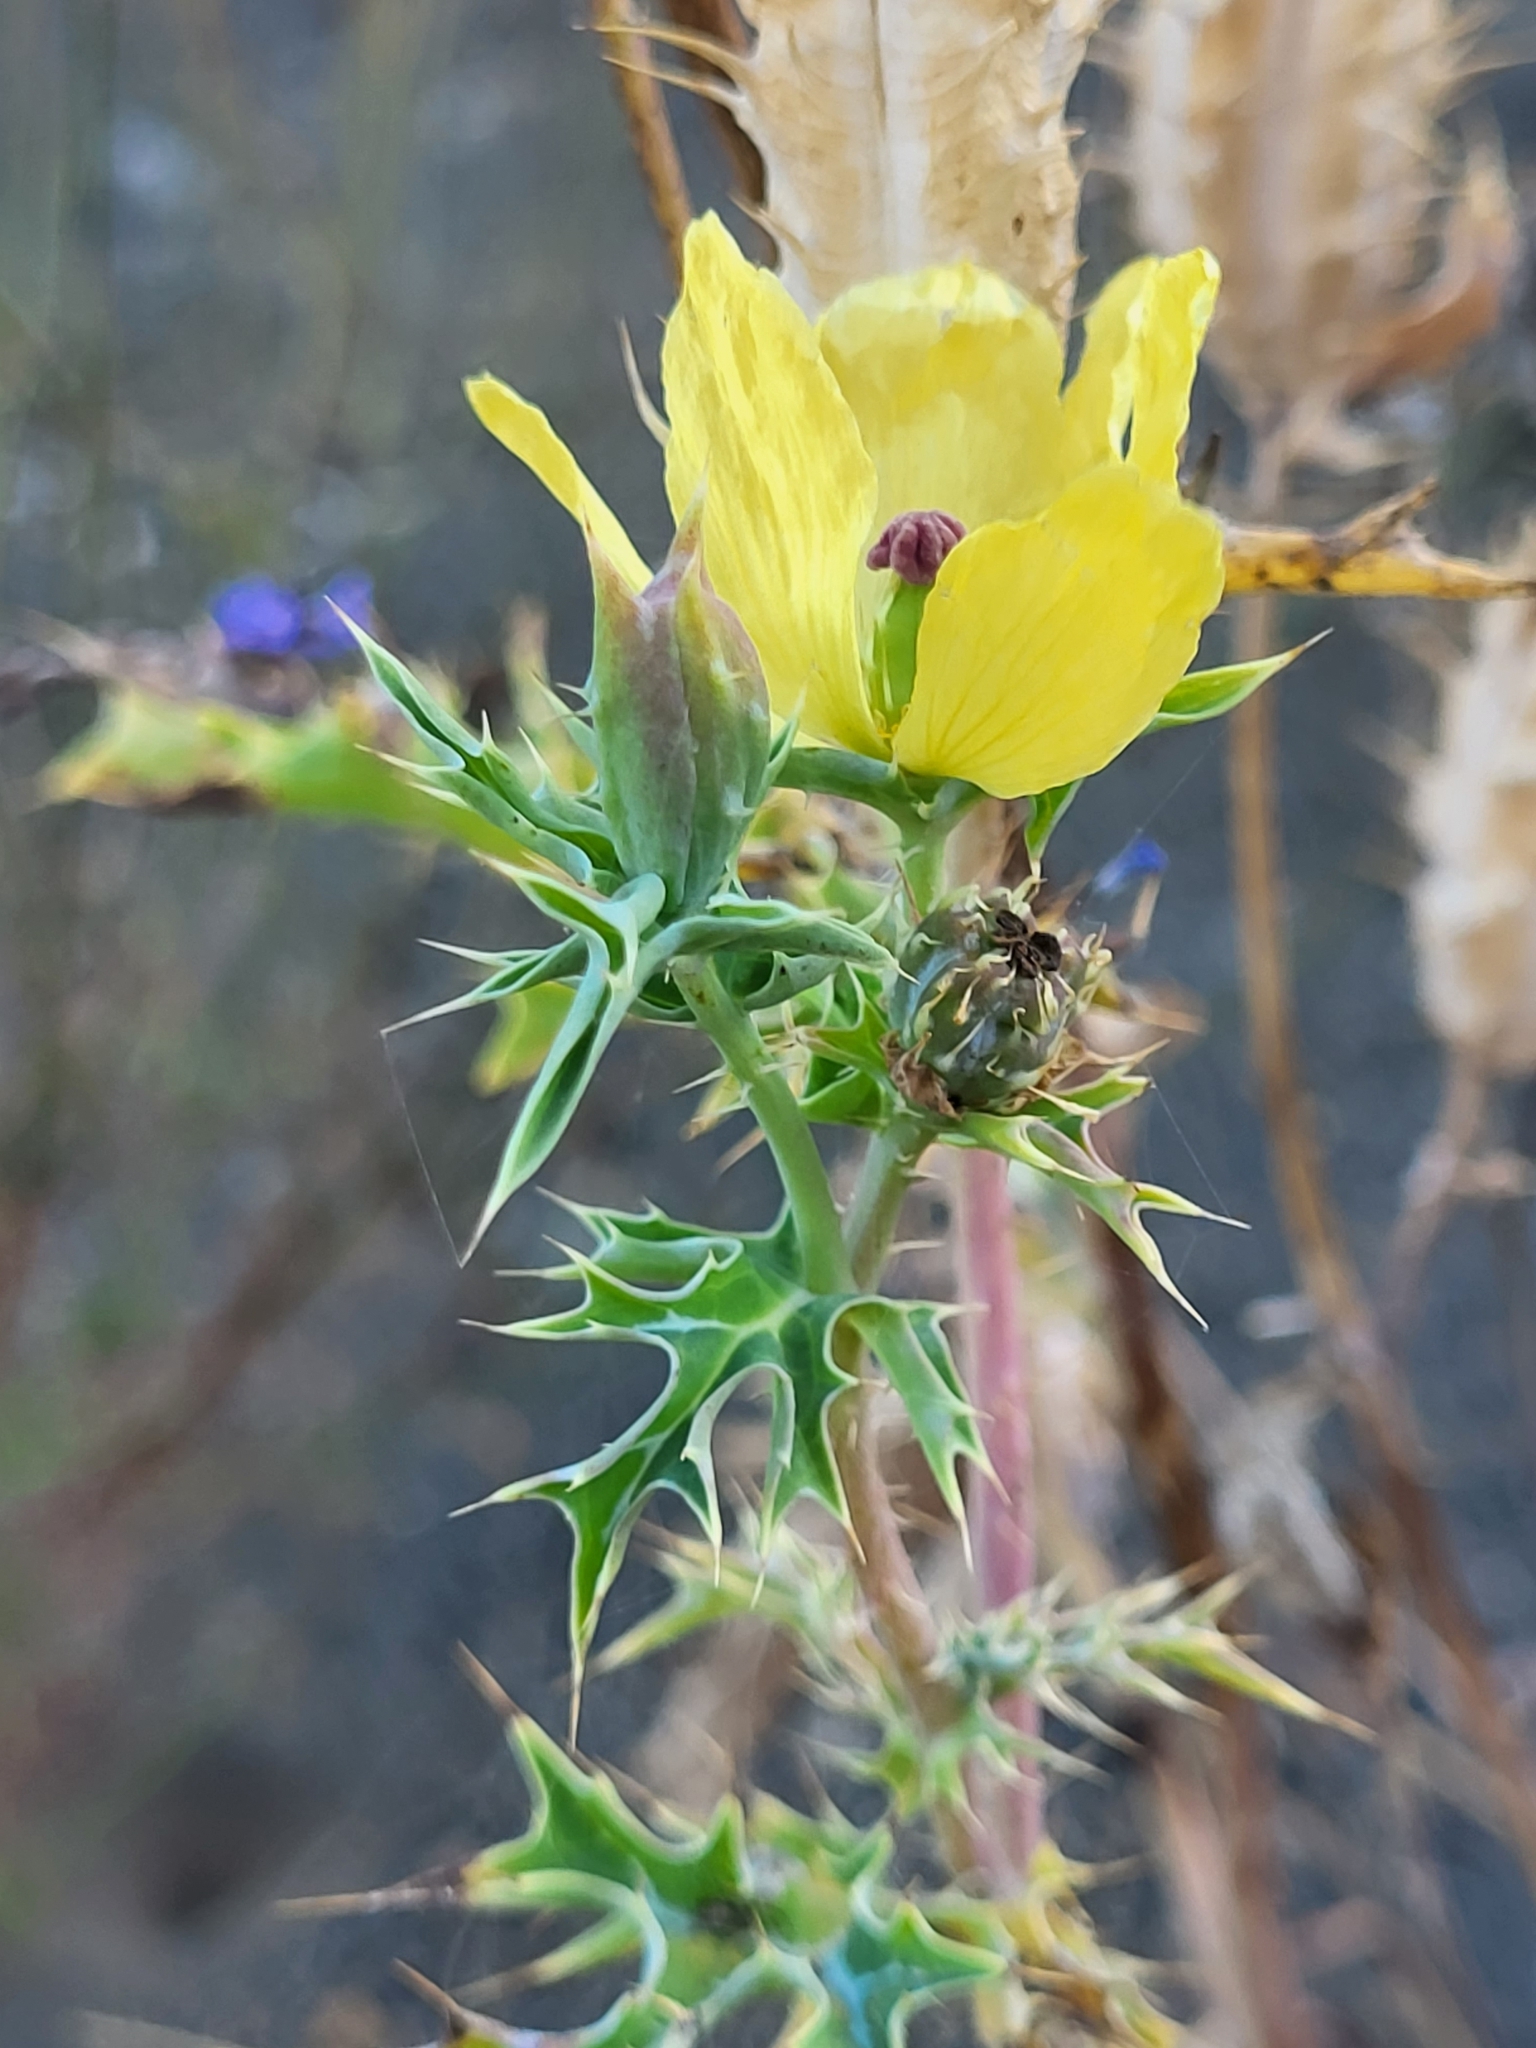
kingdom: Plantae
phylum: Tracheophyta
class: Magnoliopsida
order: Ranunculales
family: Papaveraceae
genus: Argemone
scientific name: Argemone mexicana
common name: Mexican poppy
